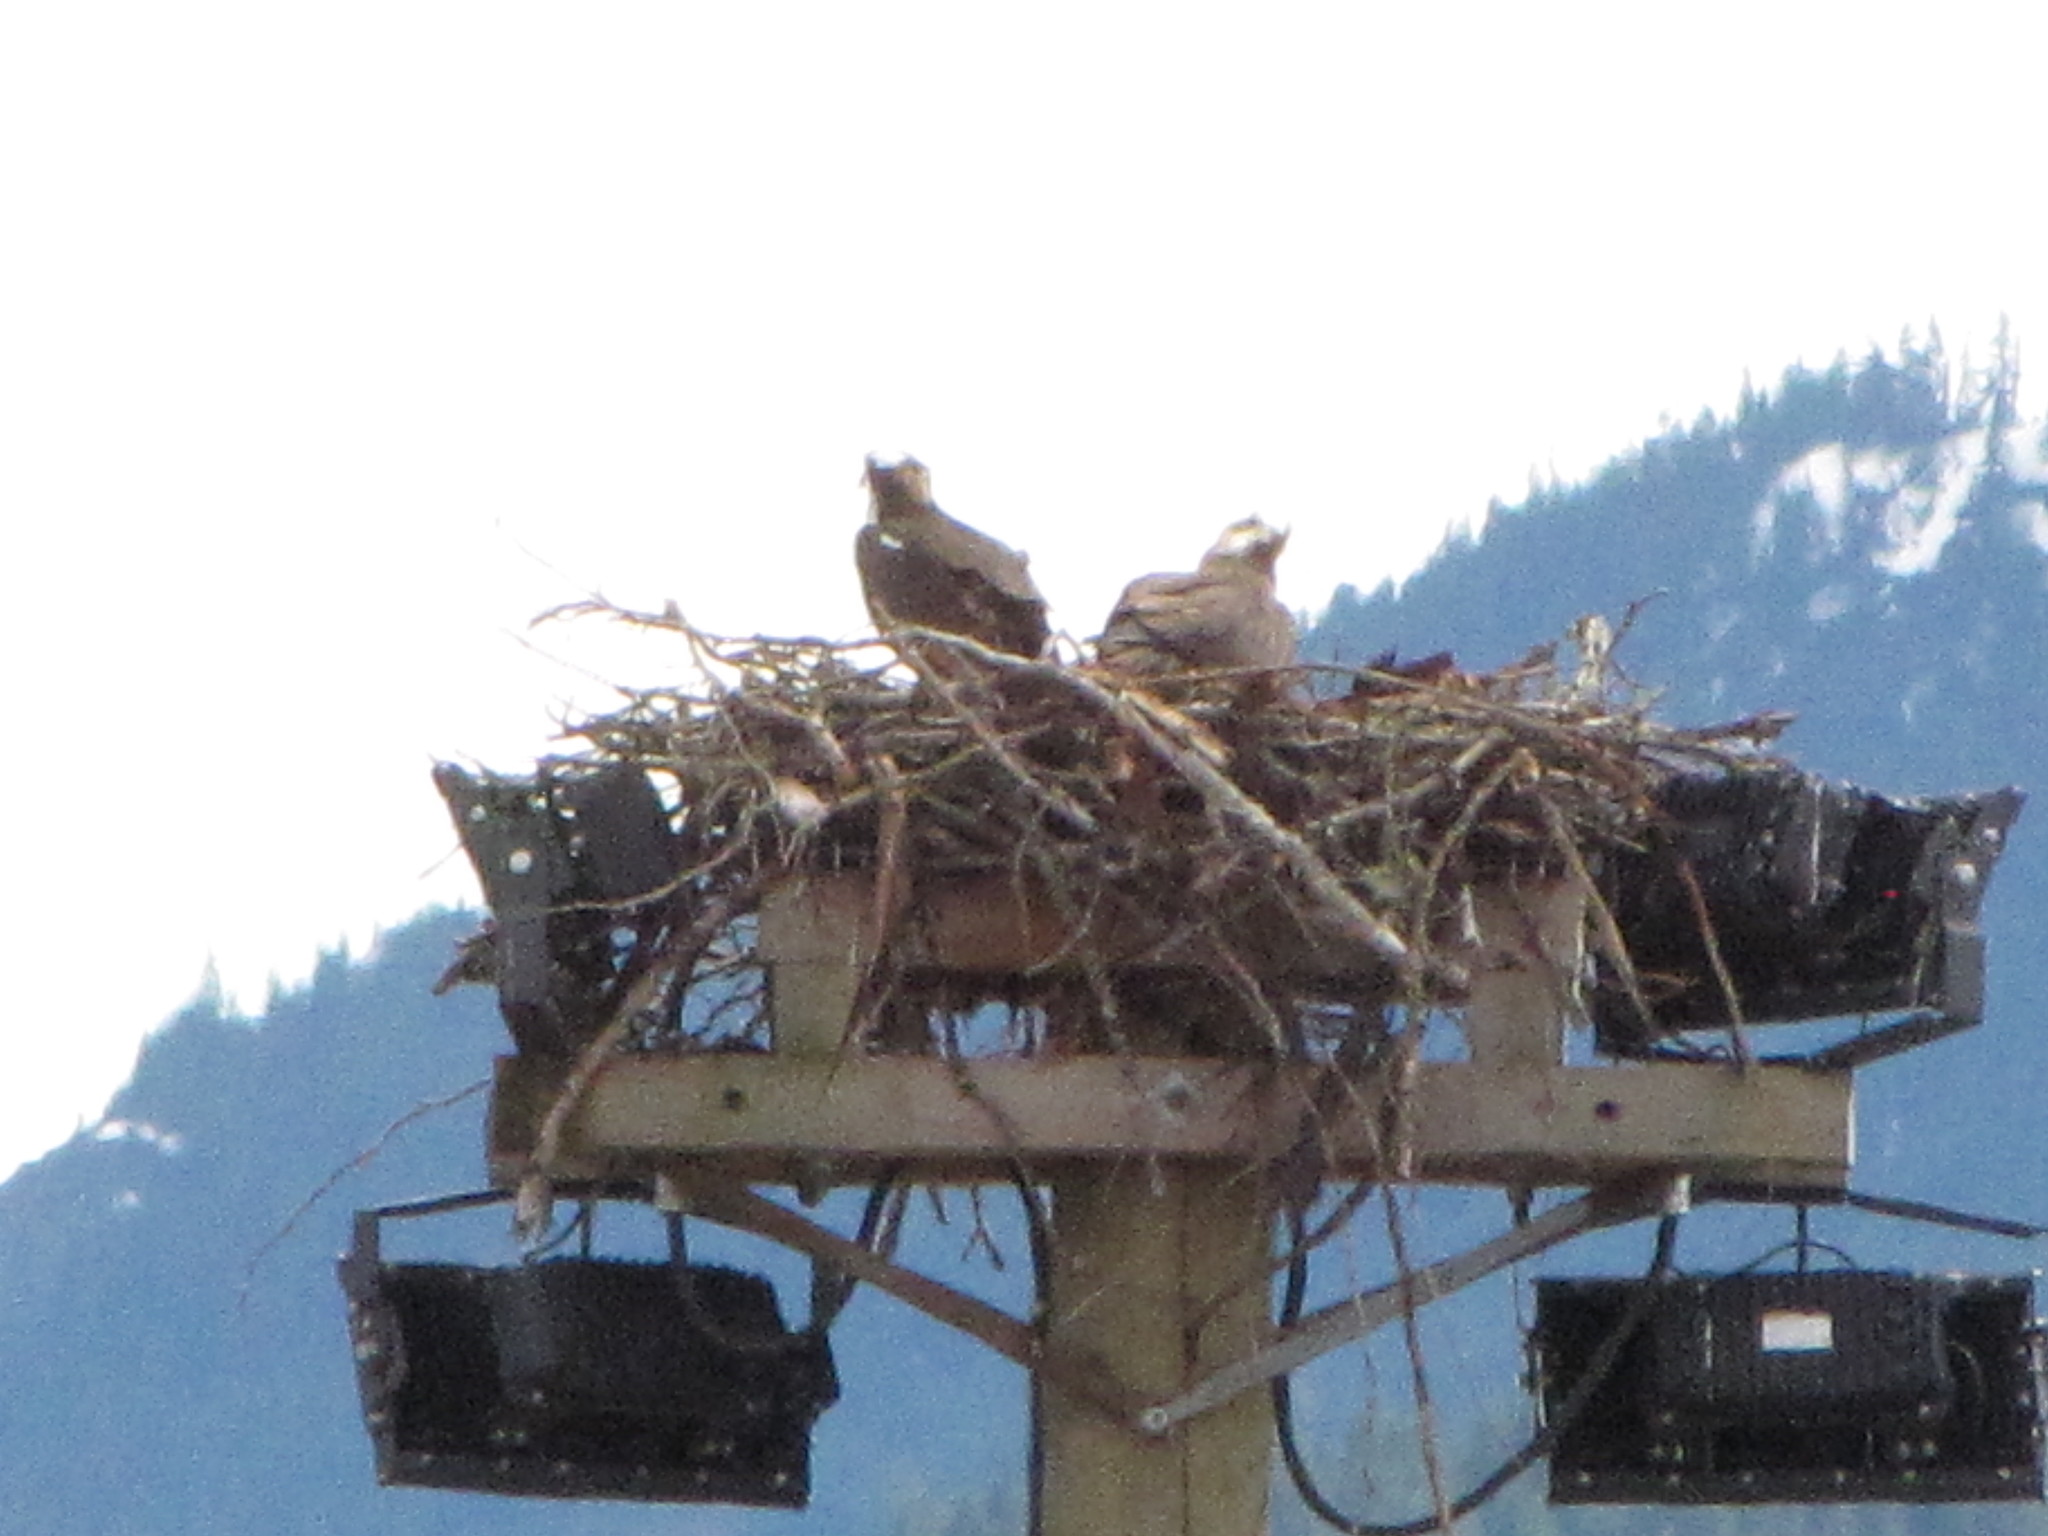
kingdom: Animalia
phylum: Chordata
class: Aves
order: Accipitriformes
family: Pandionidae
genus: Pandion
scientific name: Pandion haliaetus
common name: Osprey
